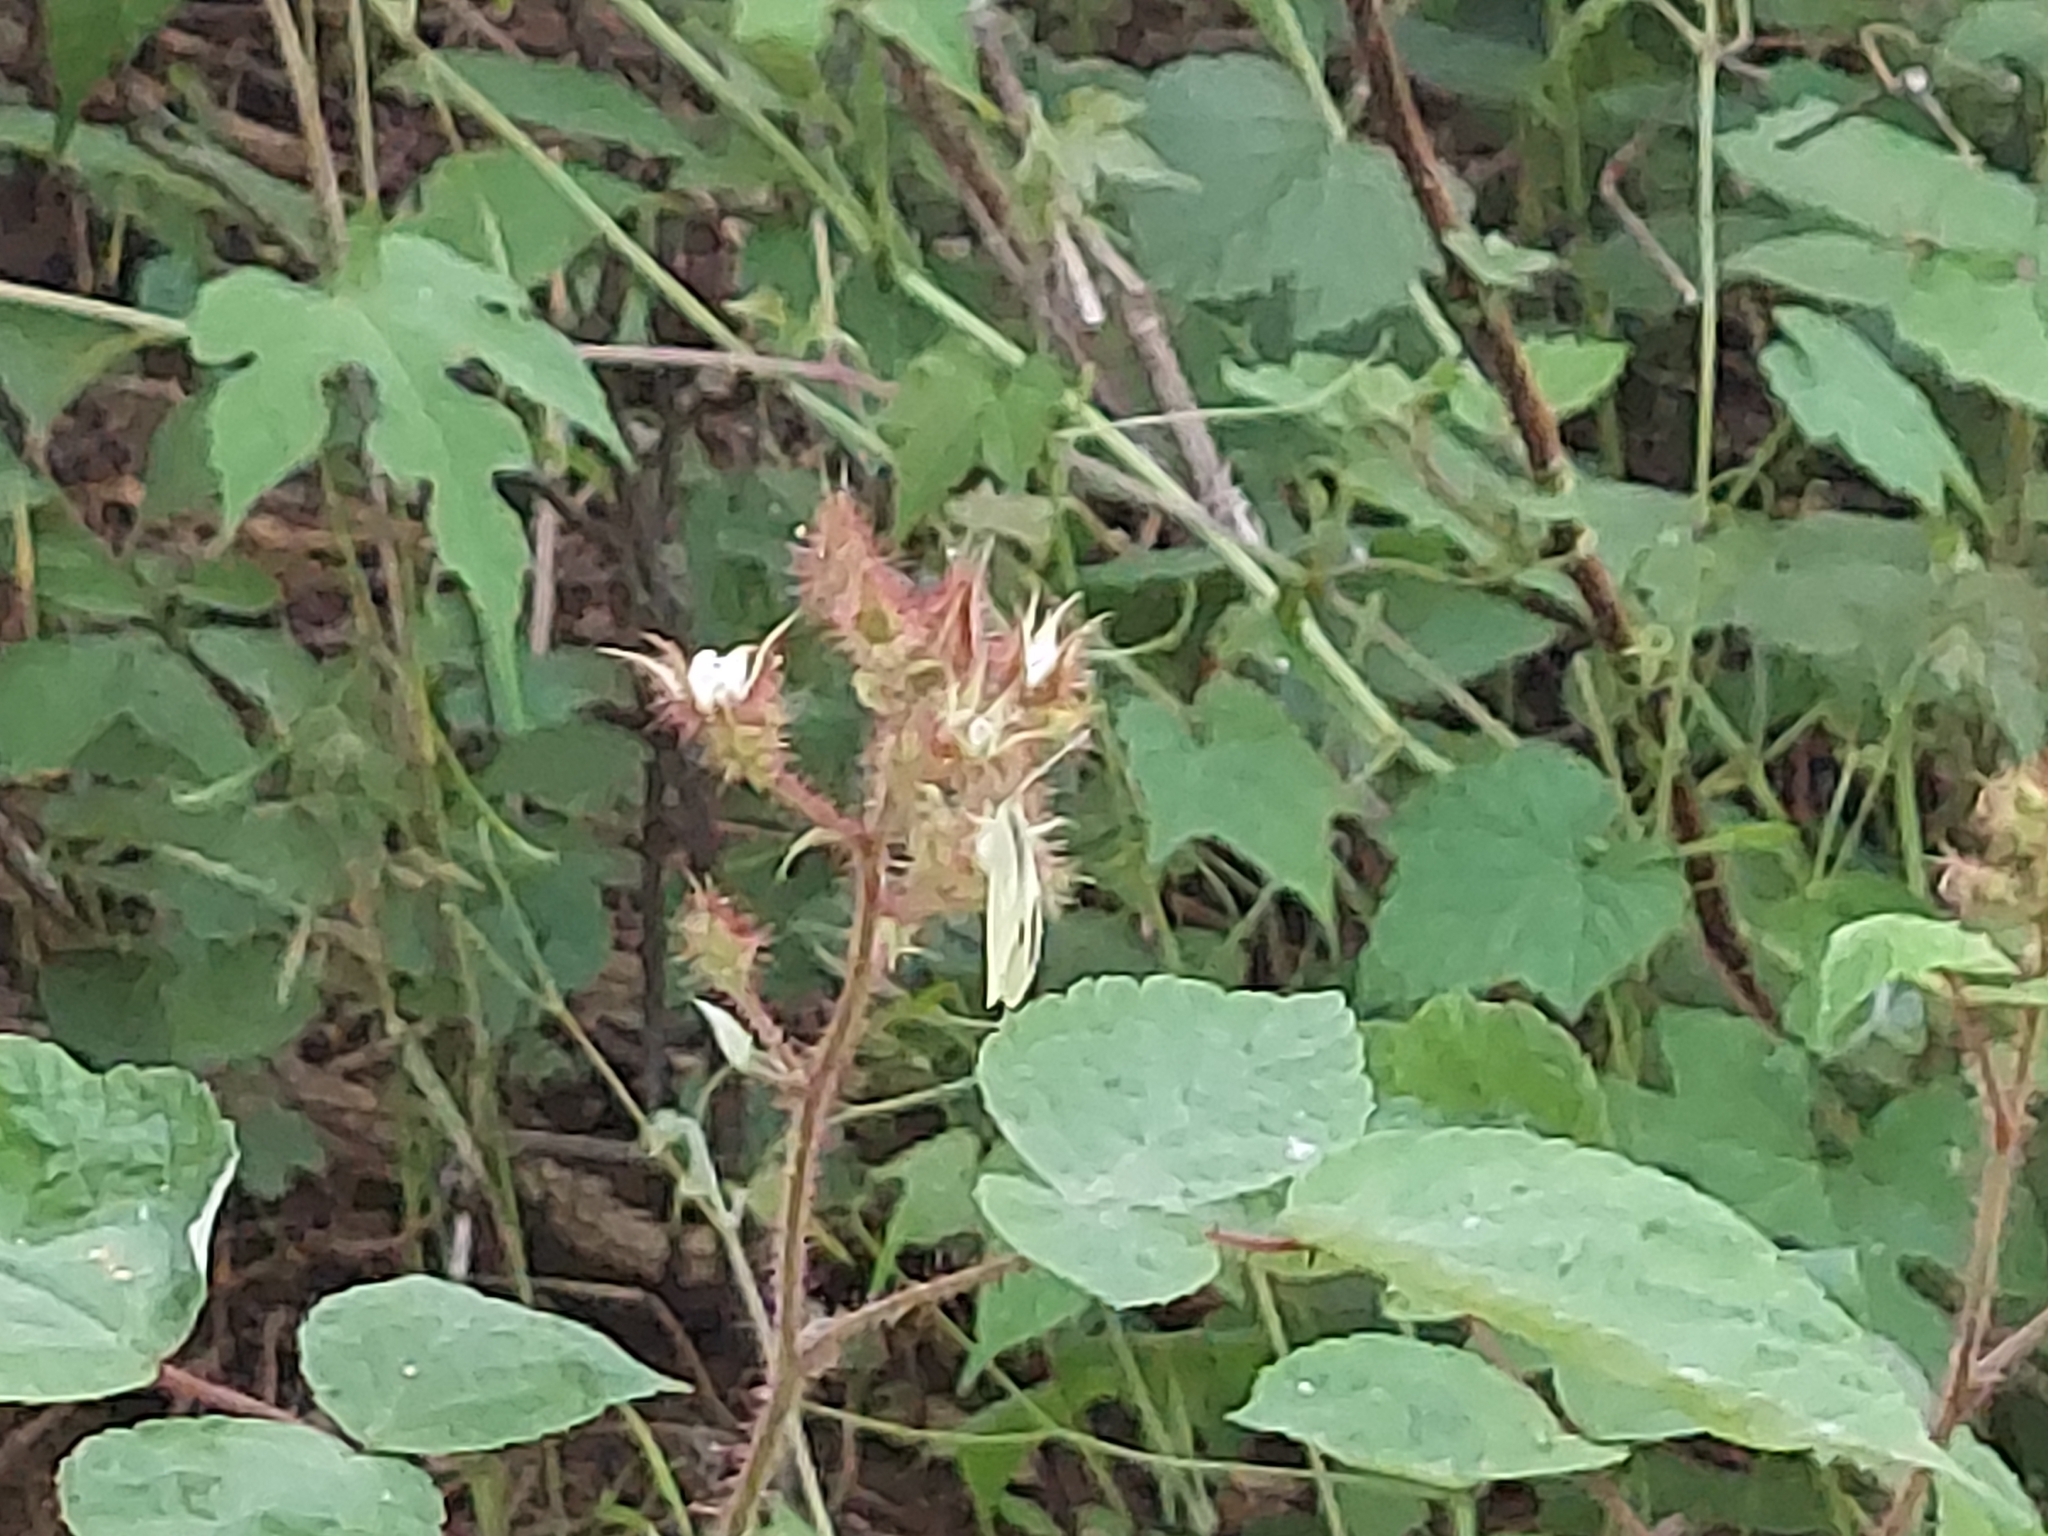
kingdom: Animalia
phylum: Arthropoda
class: Insecta
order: Lepidoptera
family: Pieridae
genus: Pieris
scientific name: Pieris rapae
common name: Small white
